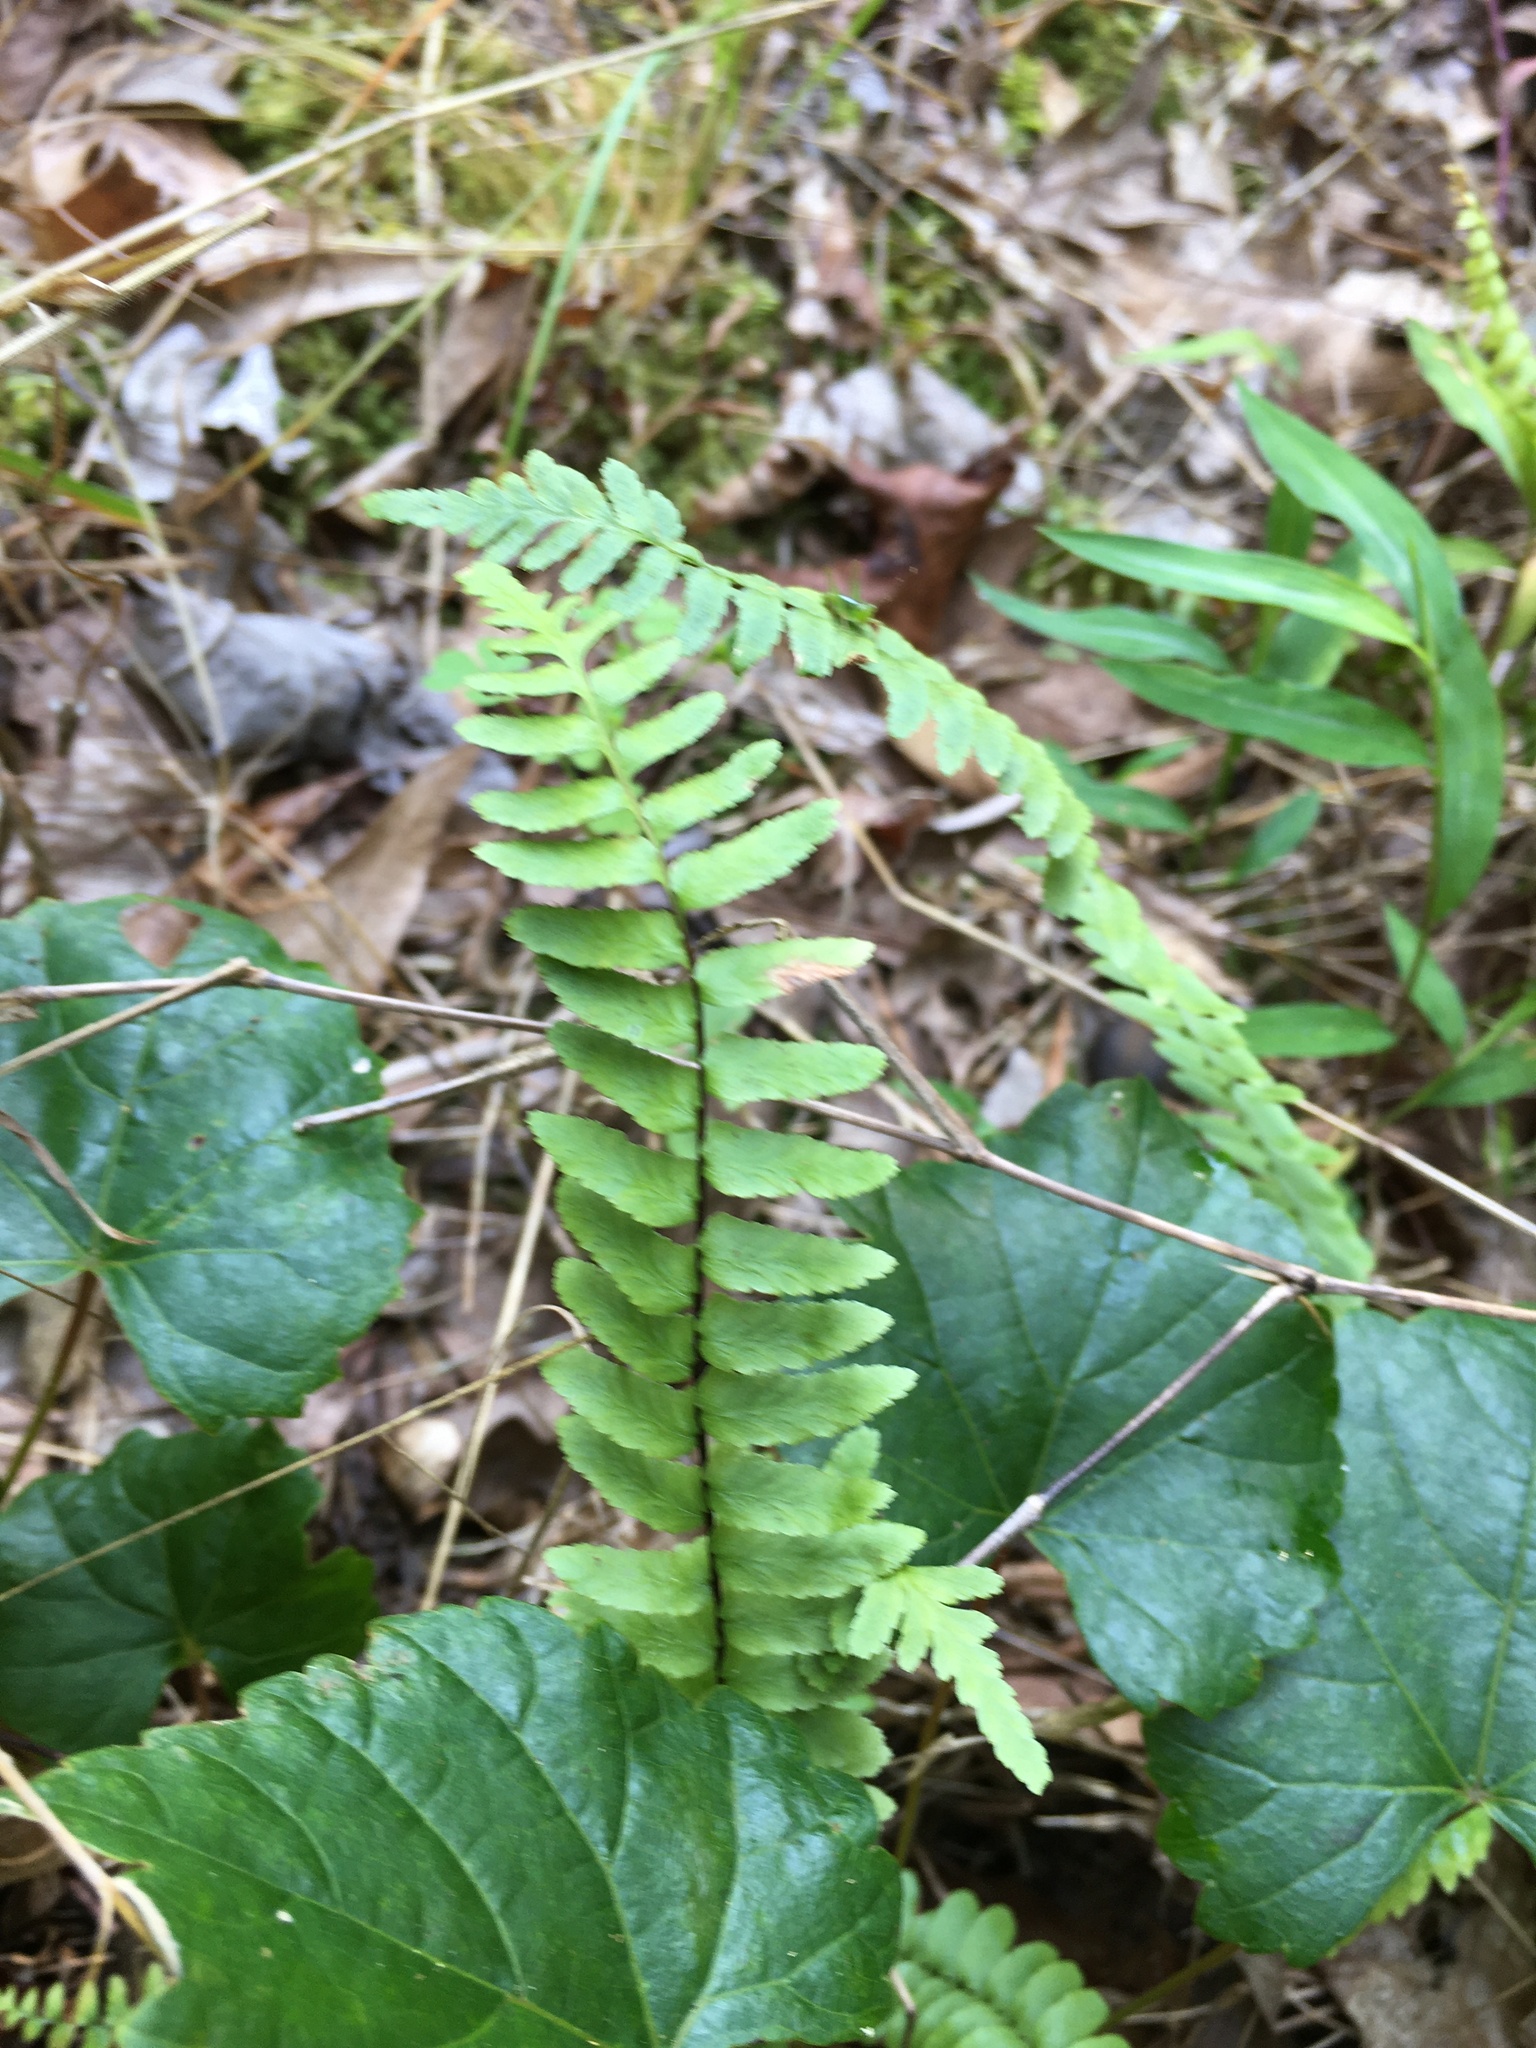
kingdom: Plantae
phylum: Tracheophyta
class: Polypodiopsida
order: Polypodiales
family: Aspleniaceae
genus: Asplenium
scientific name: Asplenium platyneuron
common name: Ebony spleenwort
